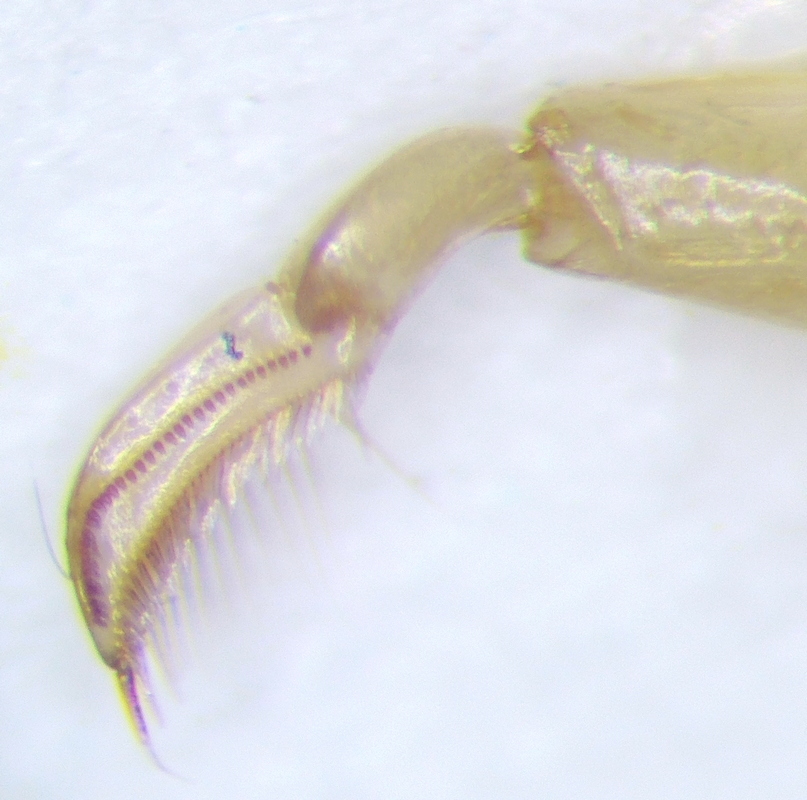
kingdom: Animalia
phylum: Arthropoda
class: Insecta
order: Hemiptera
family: Corixidae
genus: Paracorixa
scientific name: Paracorixa concinna
